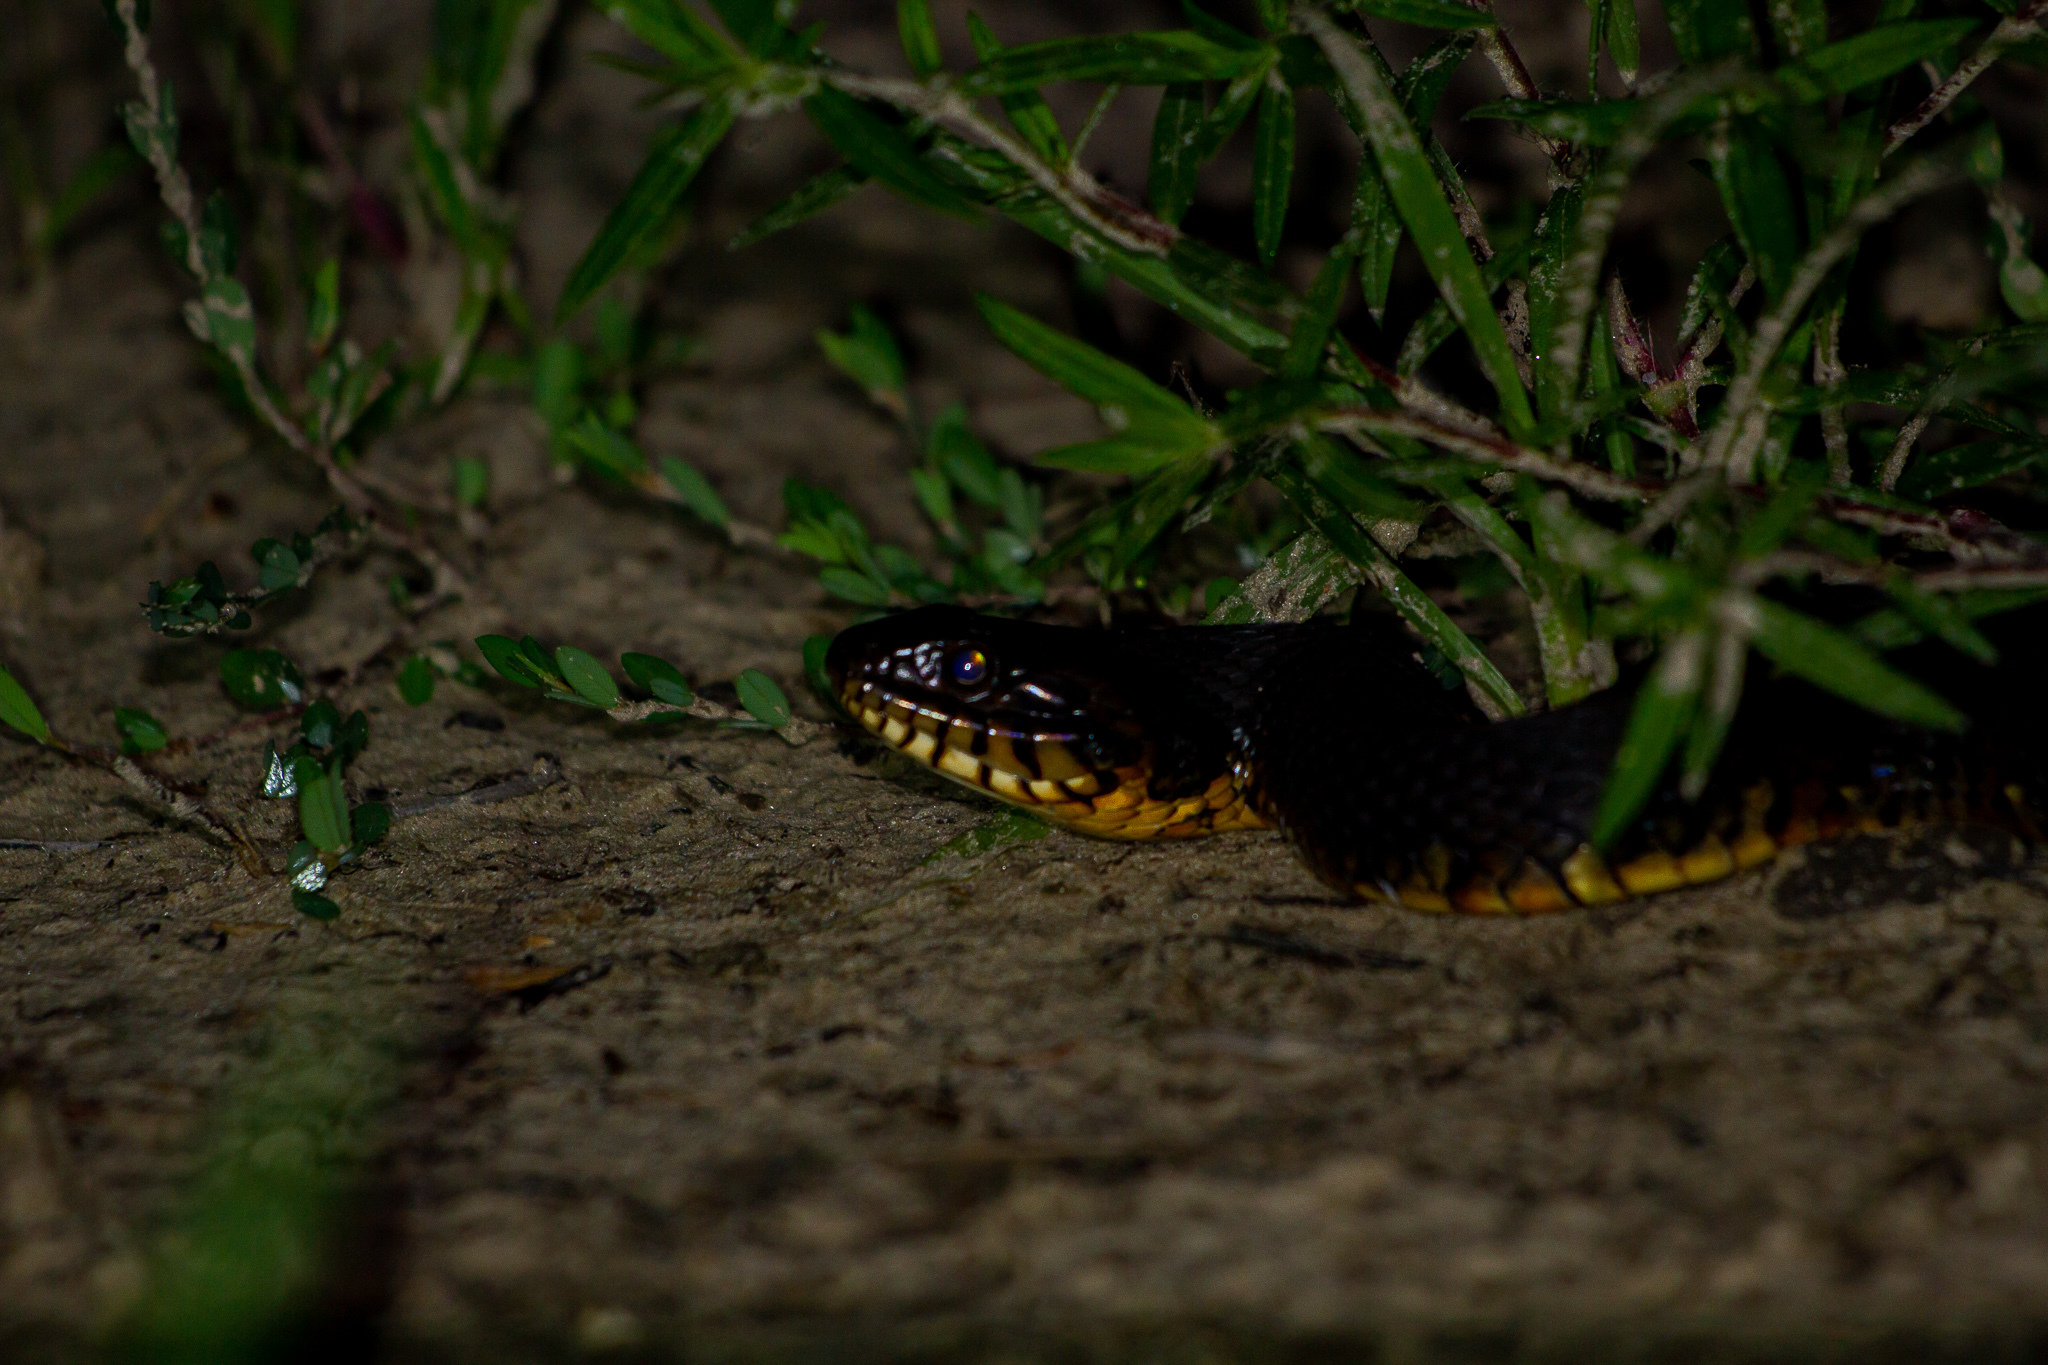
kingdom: Animalia
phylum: Chordata
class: Squamata
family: Colubridae
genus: Nerodia
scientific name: Nerodia
